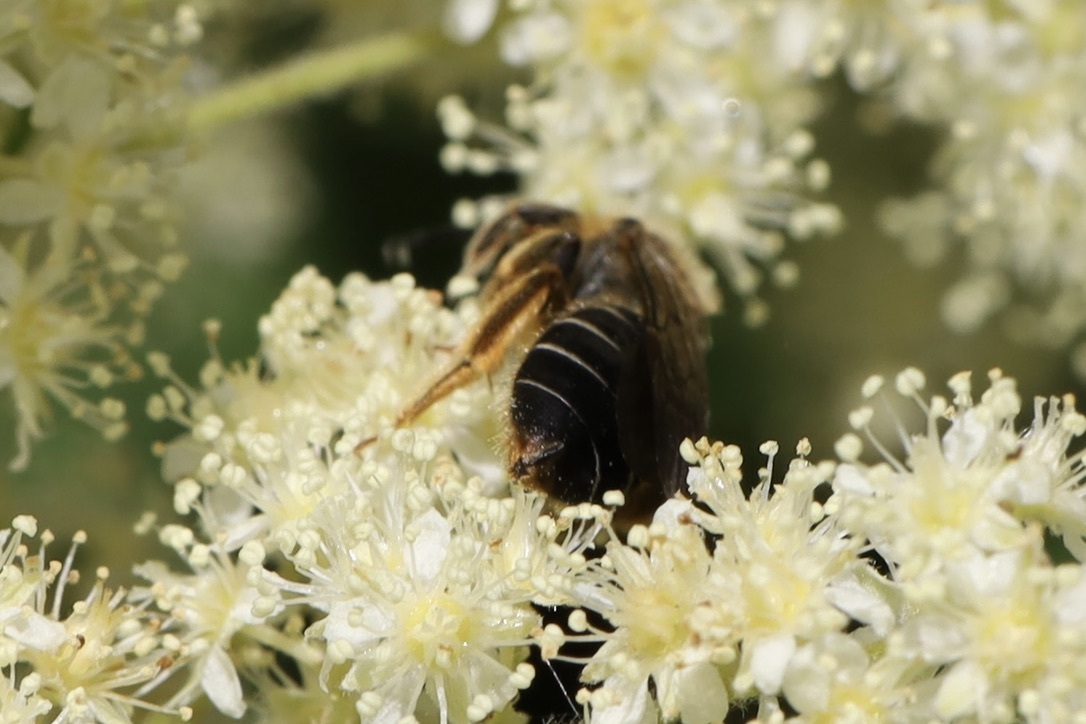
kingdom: Animalia
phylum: Arthropoda
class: Insecta
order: Hymenoptera
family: Halictidae
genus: Halictus
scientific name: Halictus rubicundus
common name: Orange-legged furrow bee
